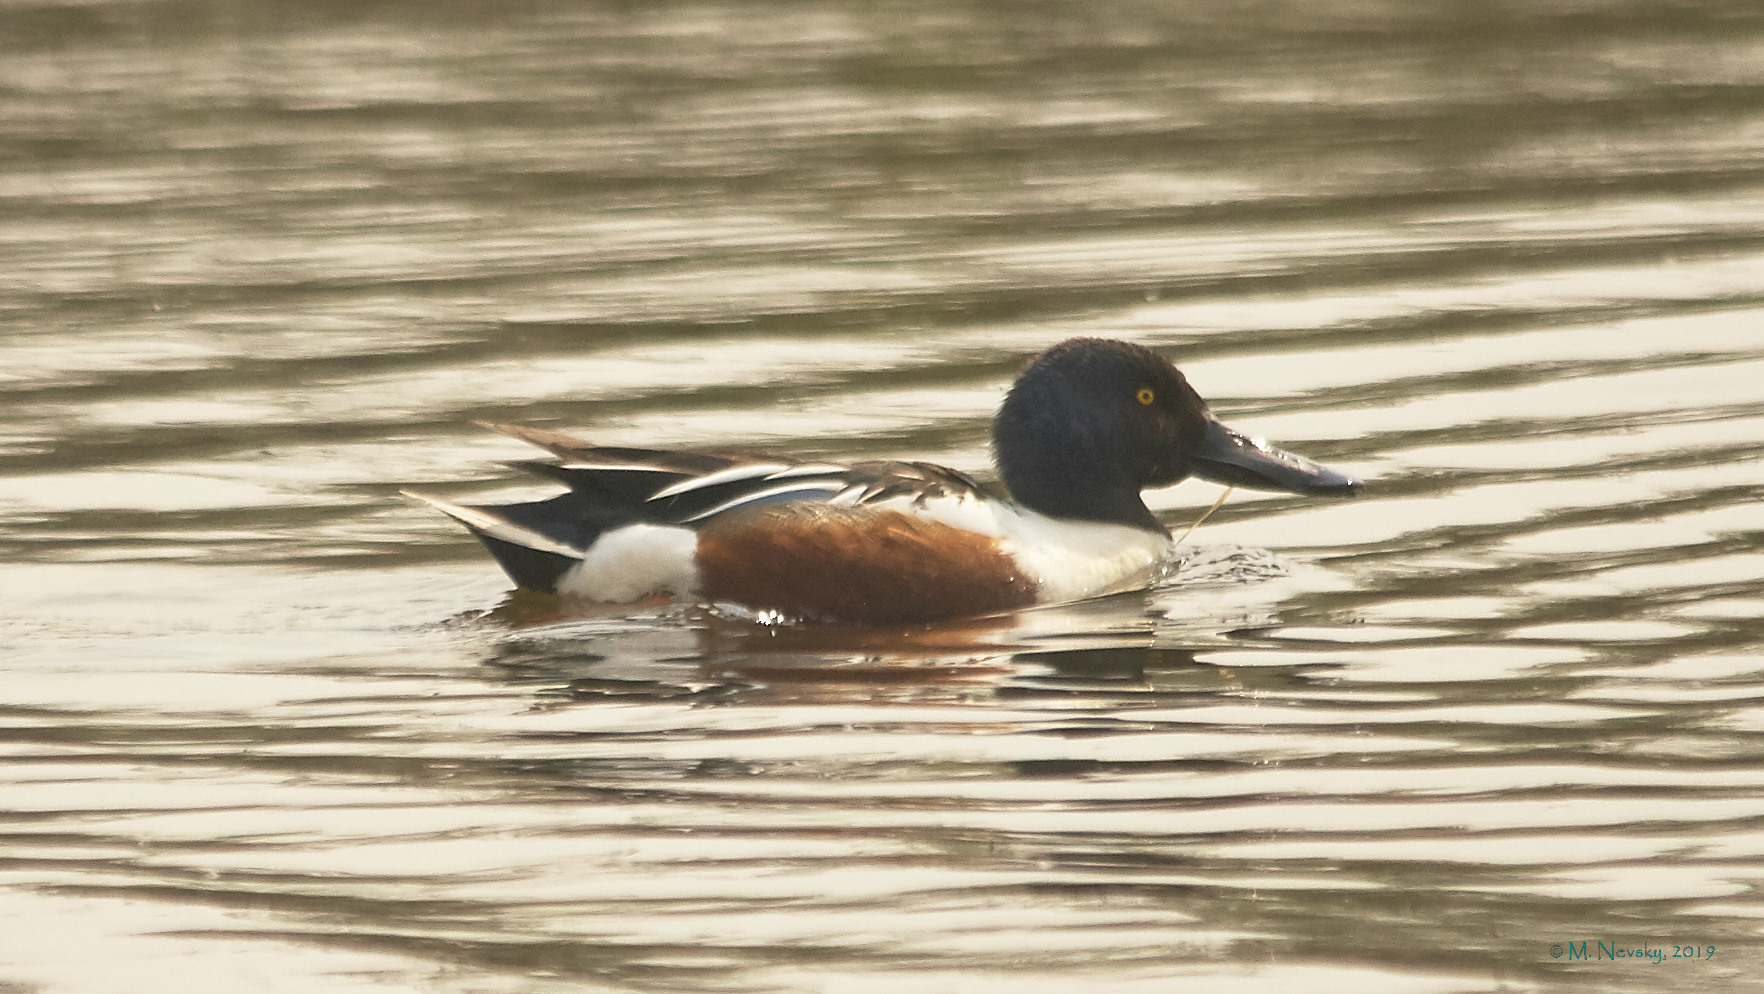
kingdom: Animalia
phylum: Chordata
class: Aves
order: Anseriformes
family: Anatidae
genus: Spatula
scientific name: Spatula clypeata
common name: Northern shoveler
